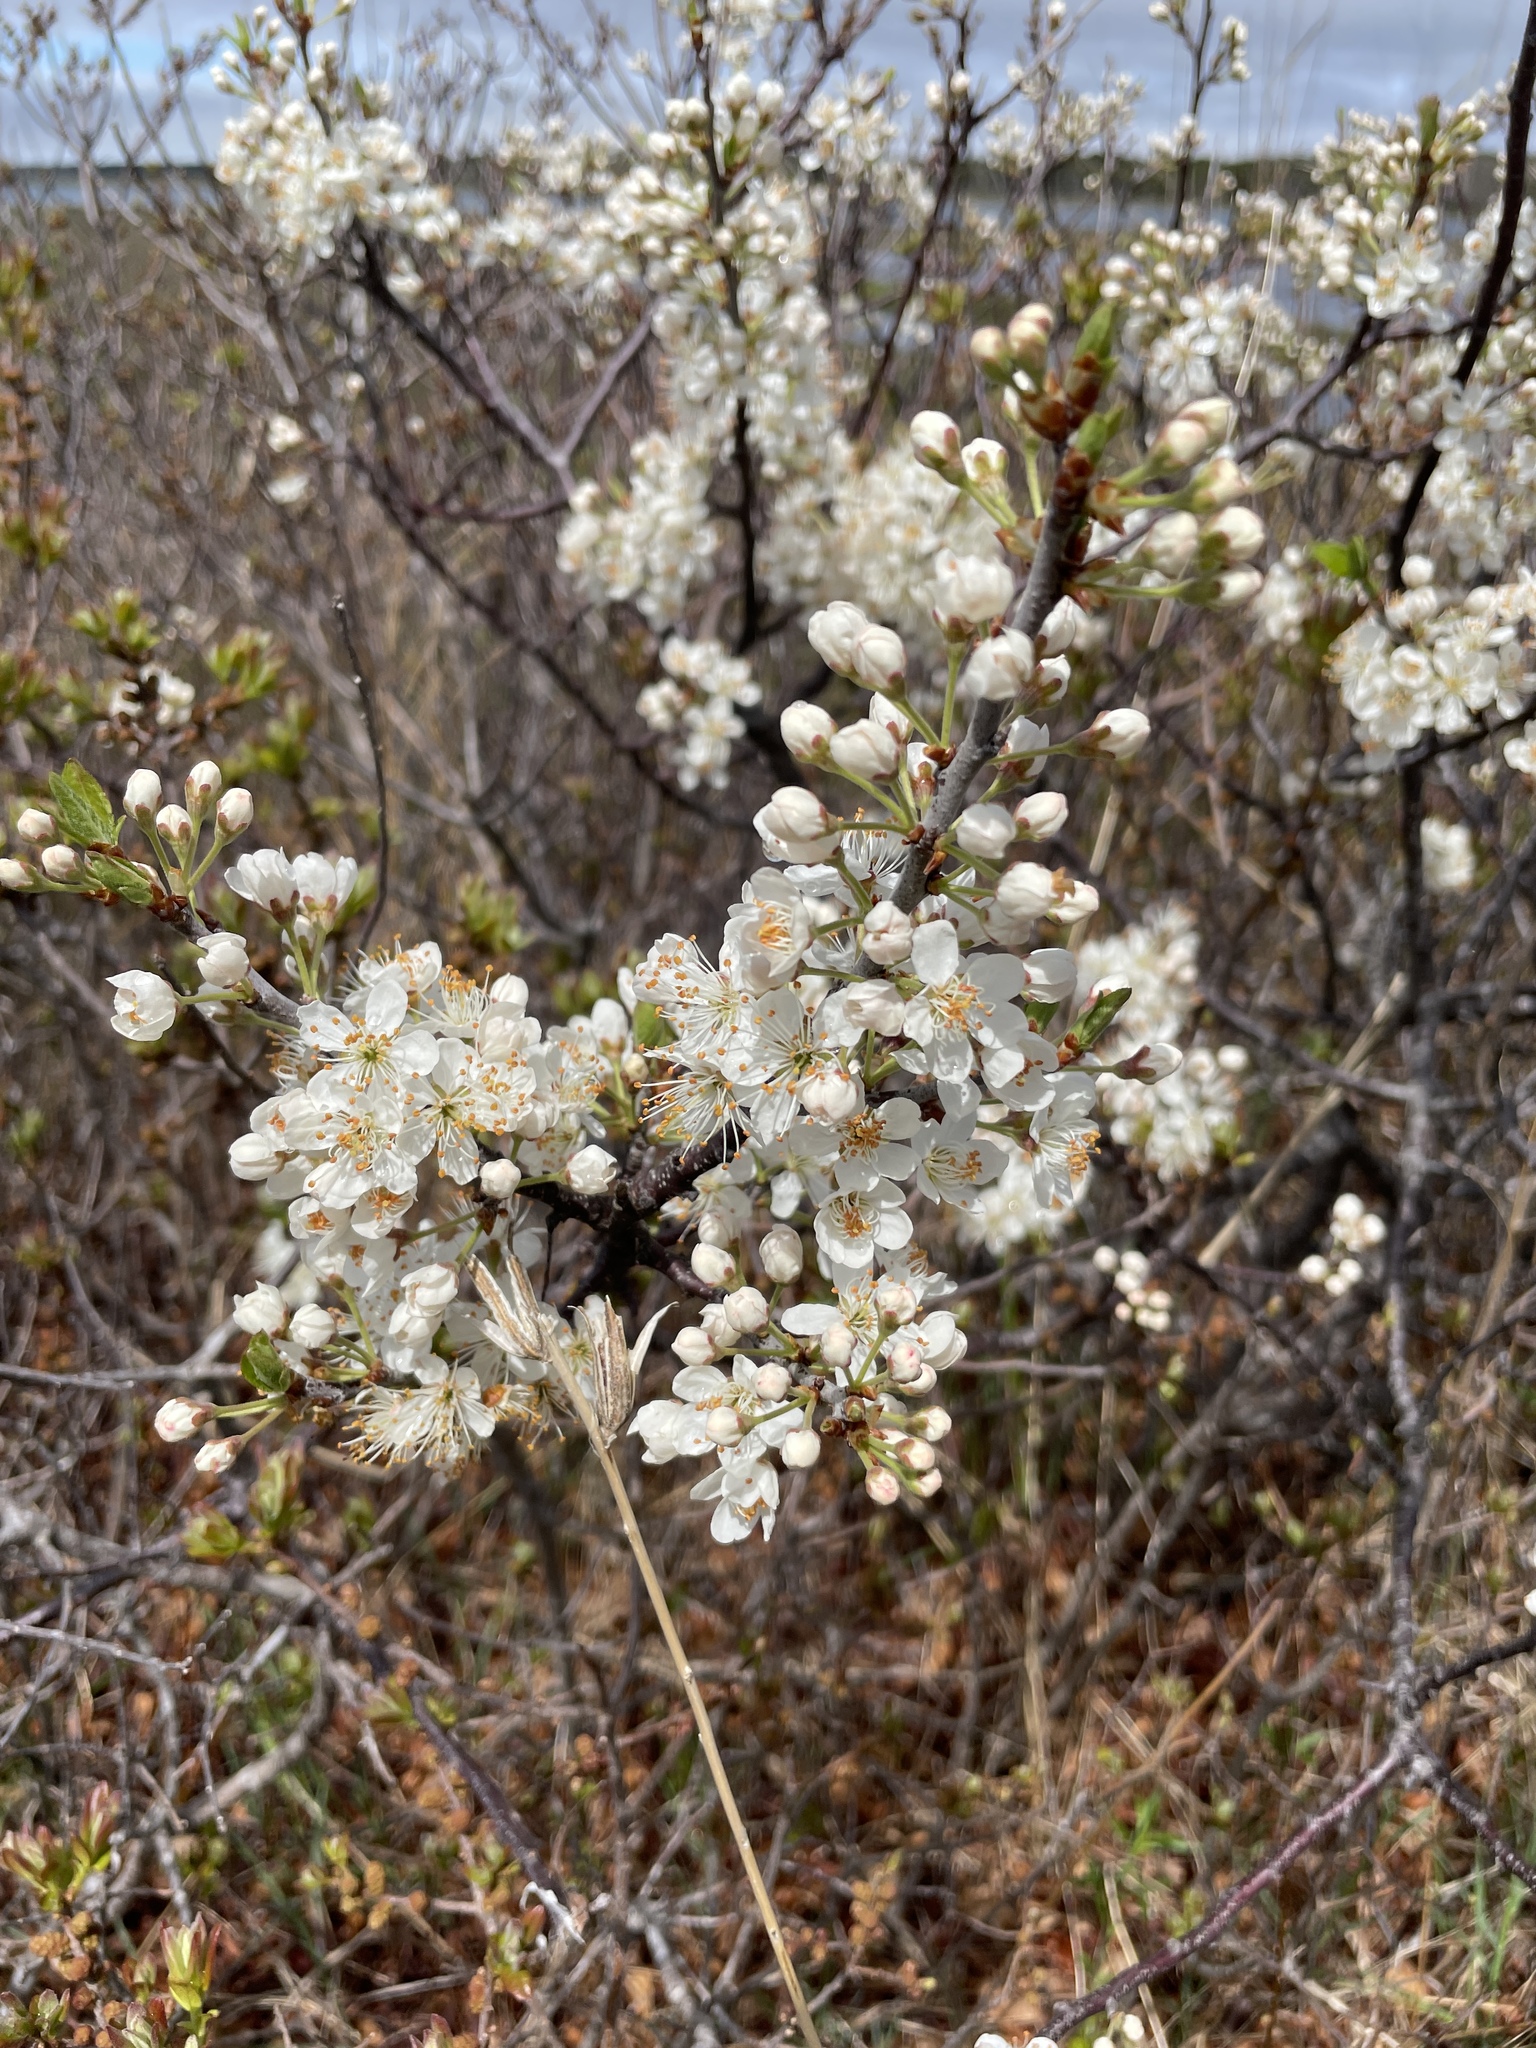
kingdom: Plantae
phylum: Tracheophyta
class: Magnoliopsida
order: Rosales
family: Rosaceae
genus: Prunus
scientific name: Prunus maritima
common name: Beach plum
